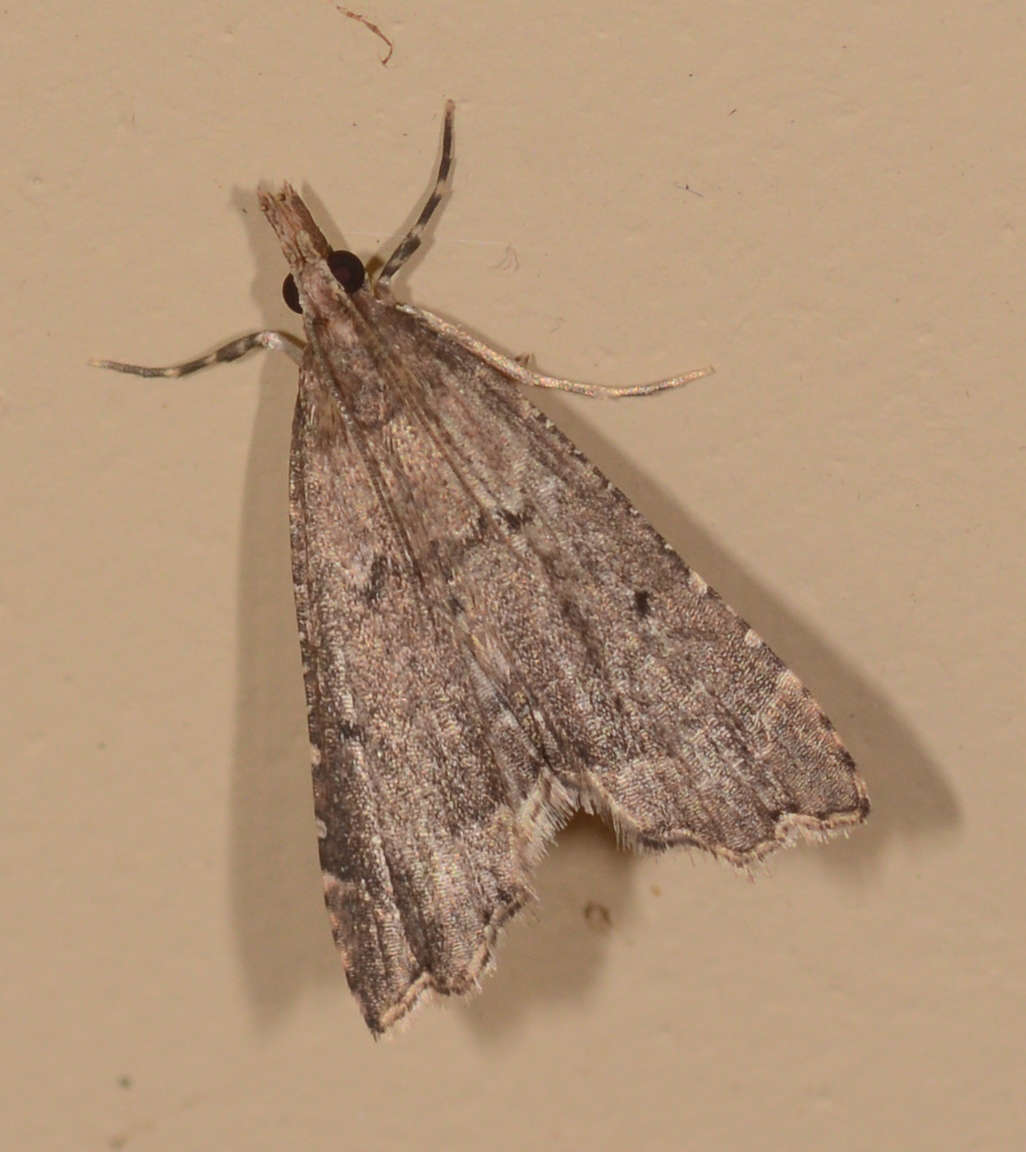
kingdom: Animalia
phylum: Arthropoda
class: Insecta
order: Lepidoptera
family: Crambidae
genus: Diplopseustis
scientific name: Diplopseustis perieresalis
